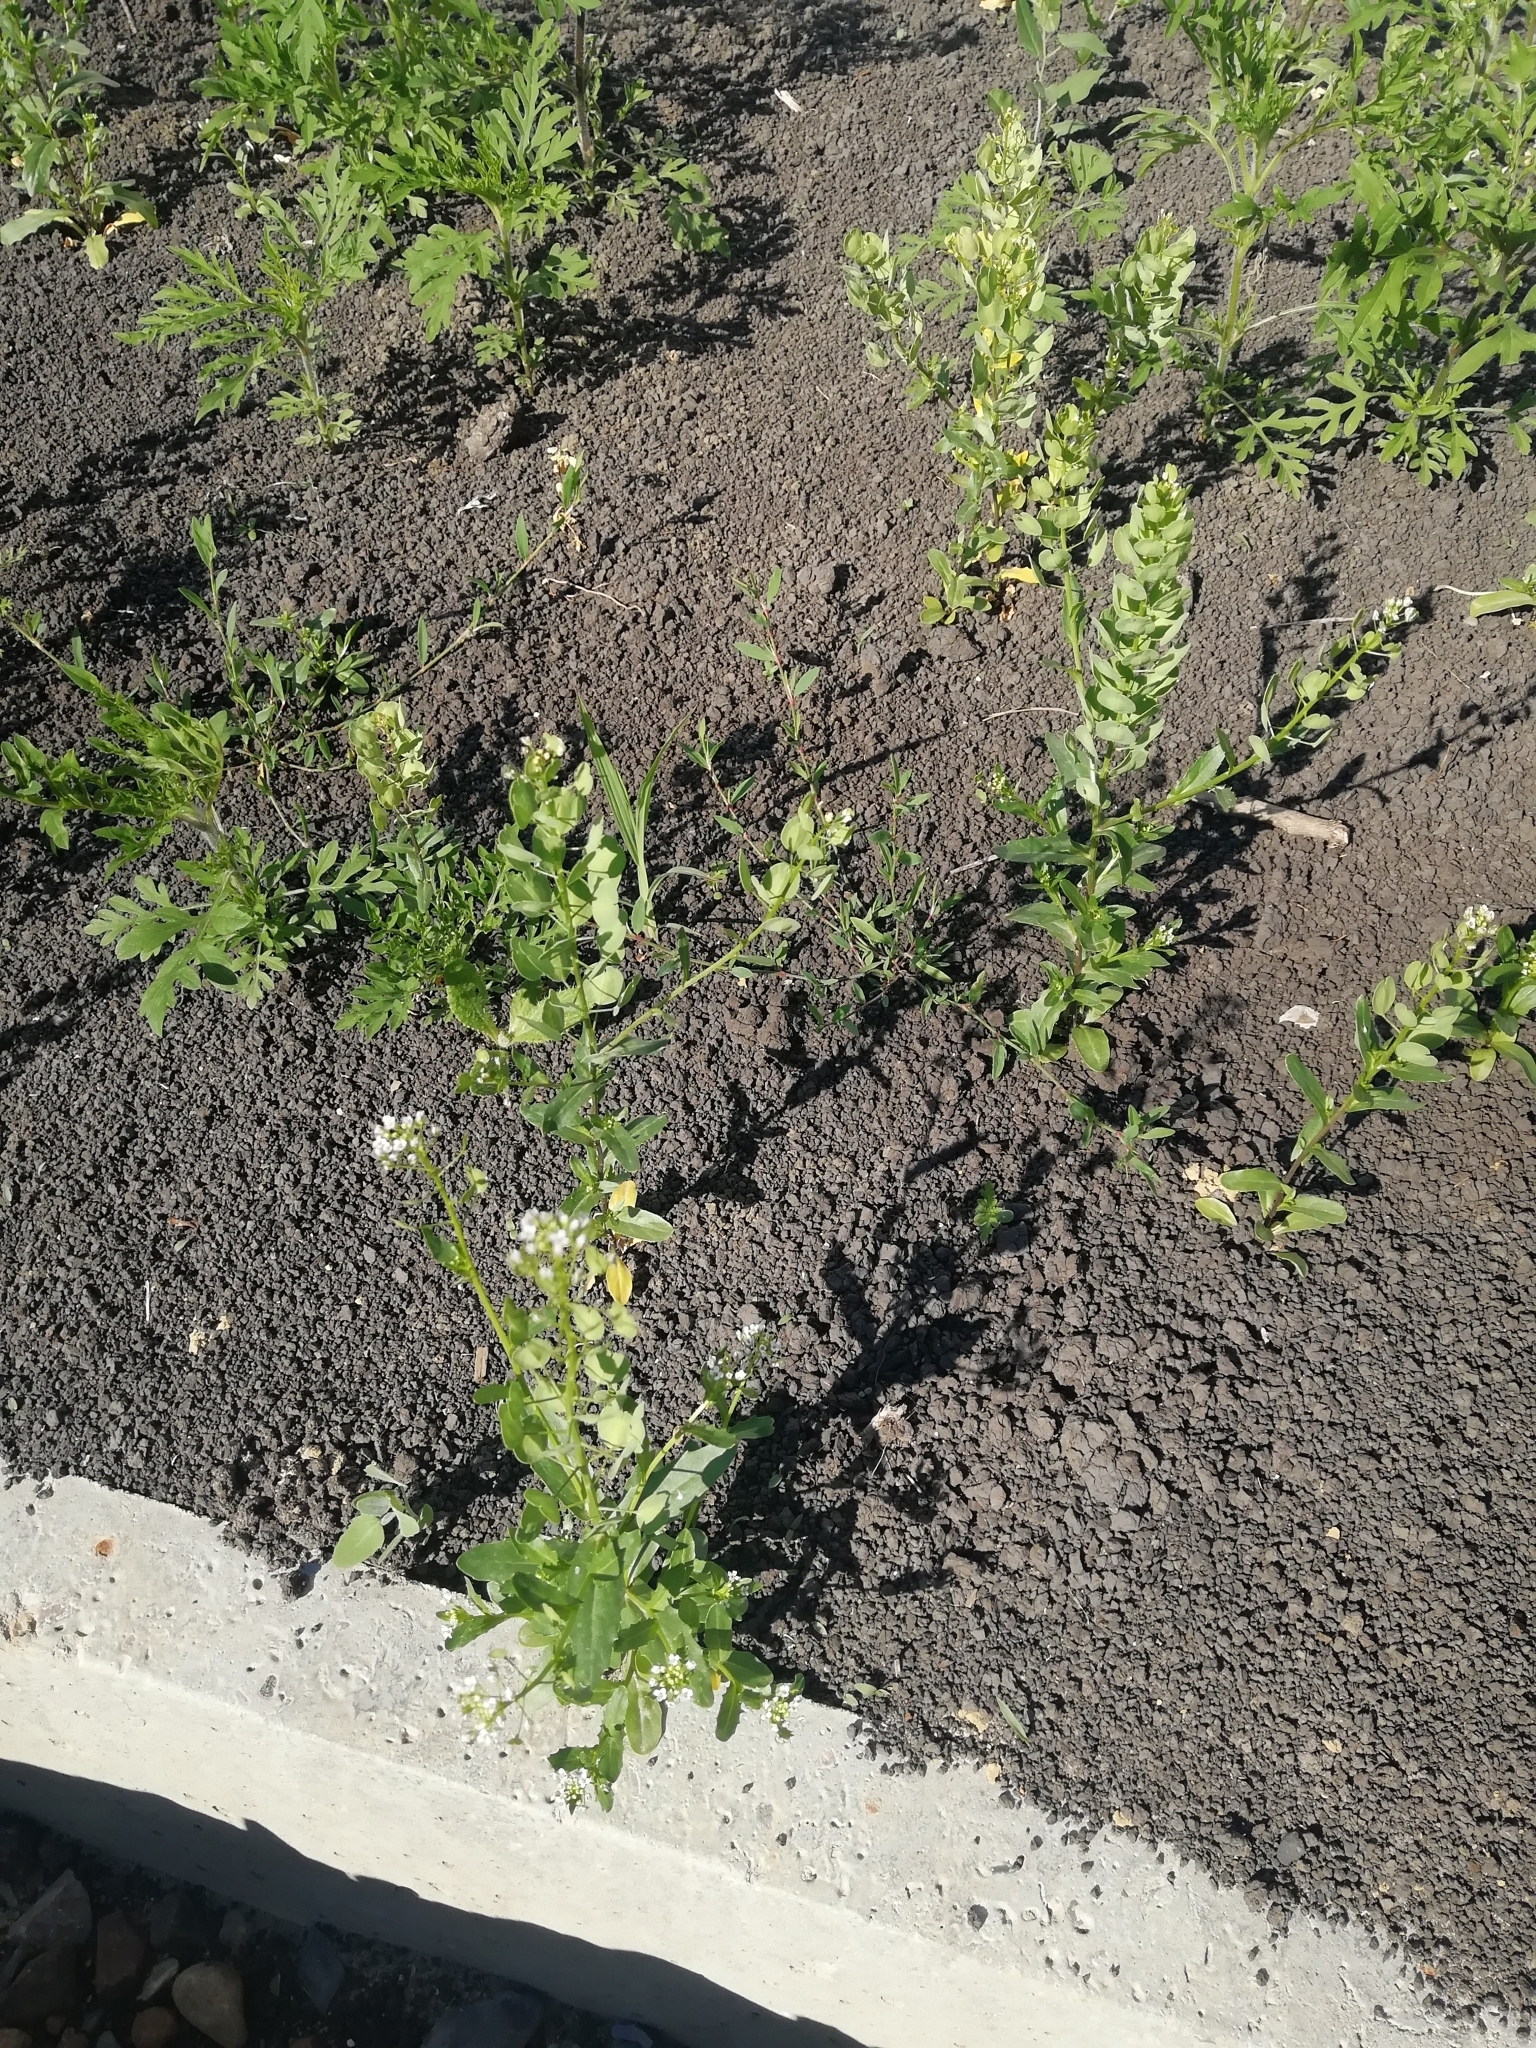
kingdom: Plantae
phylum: Tracheophyta
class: Magnoliopsida
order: Brassicales
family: Brassicaceae
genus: Thlaspi
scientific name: Thlaspi arvense
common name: Field pennycress
